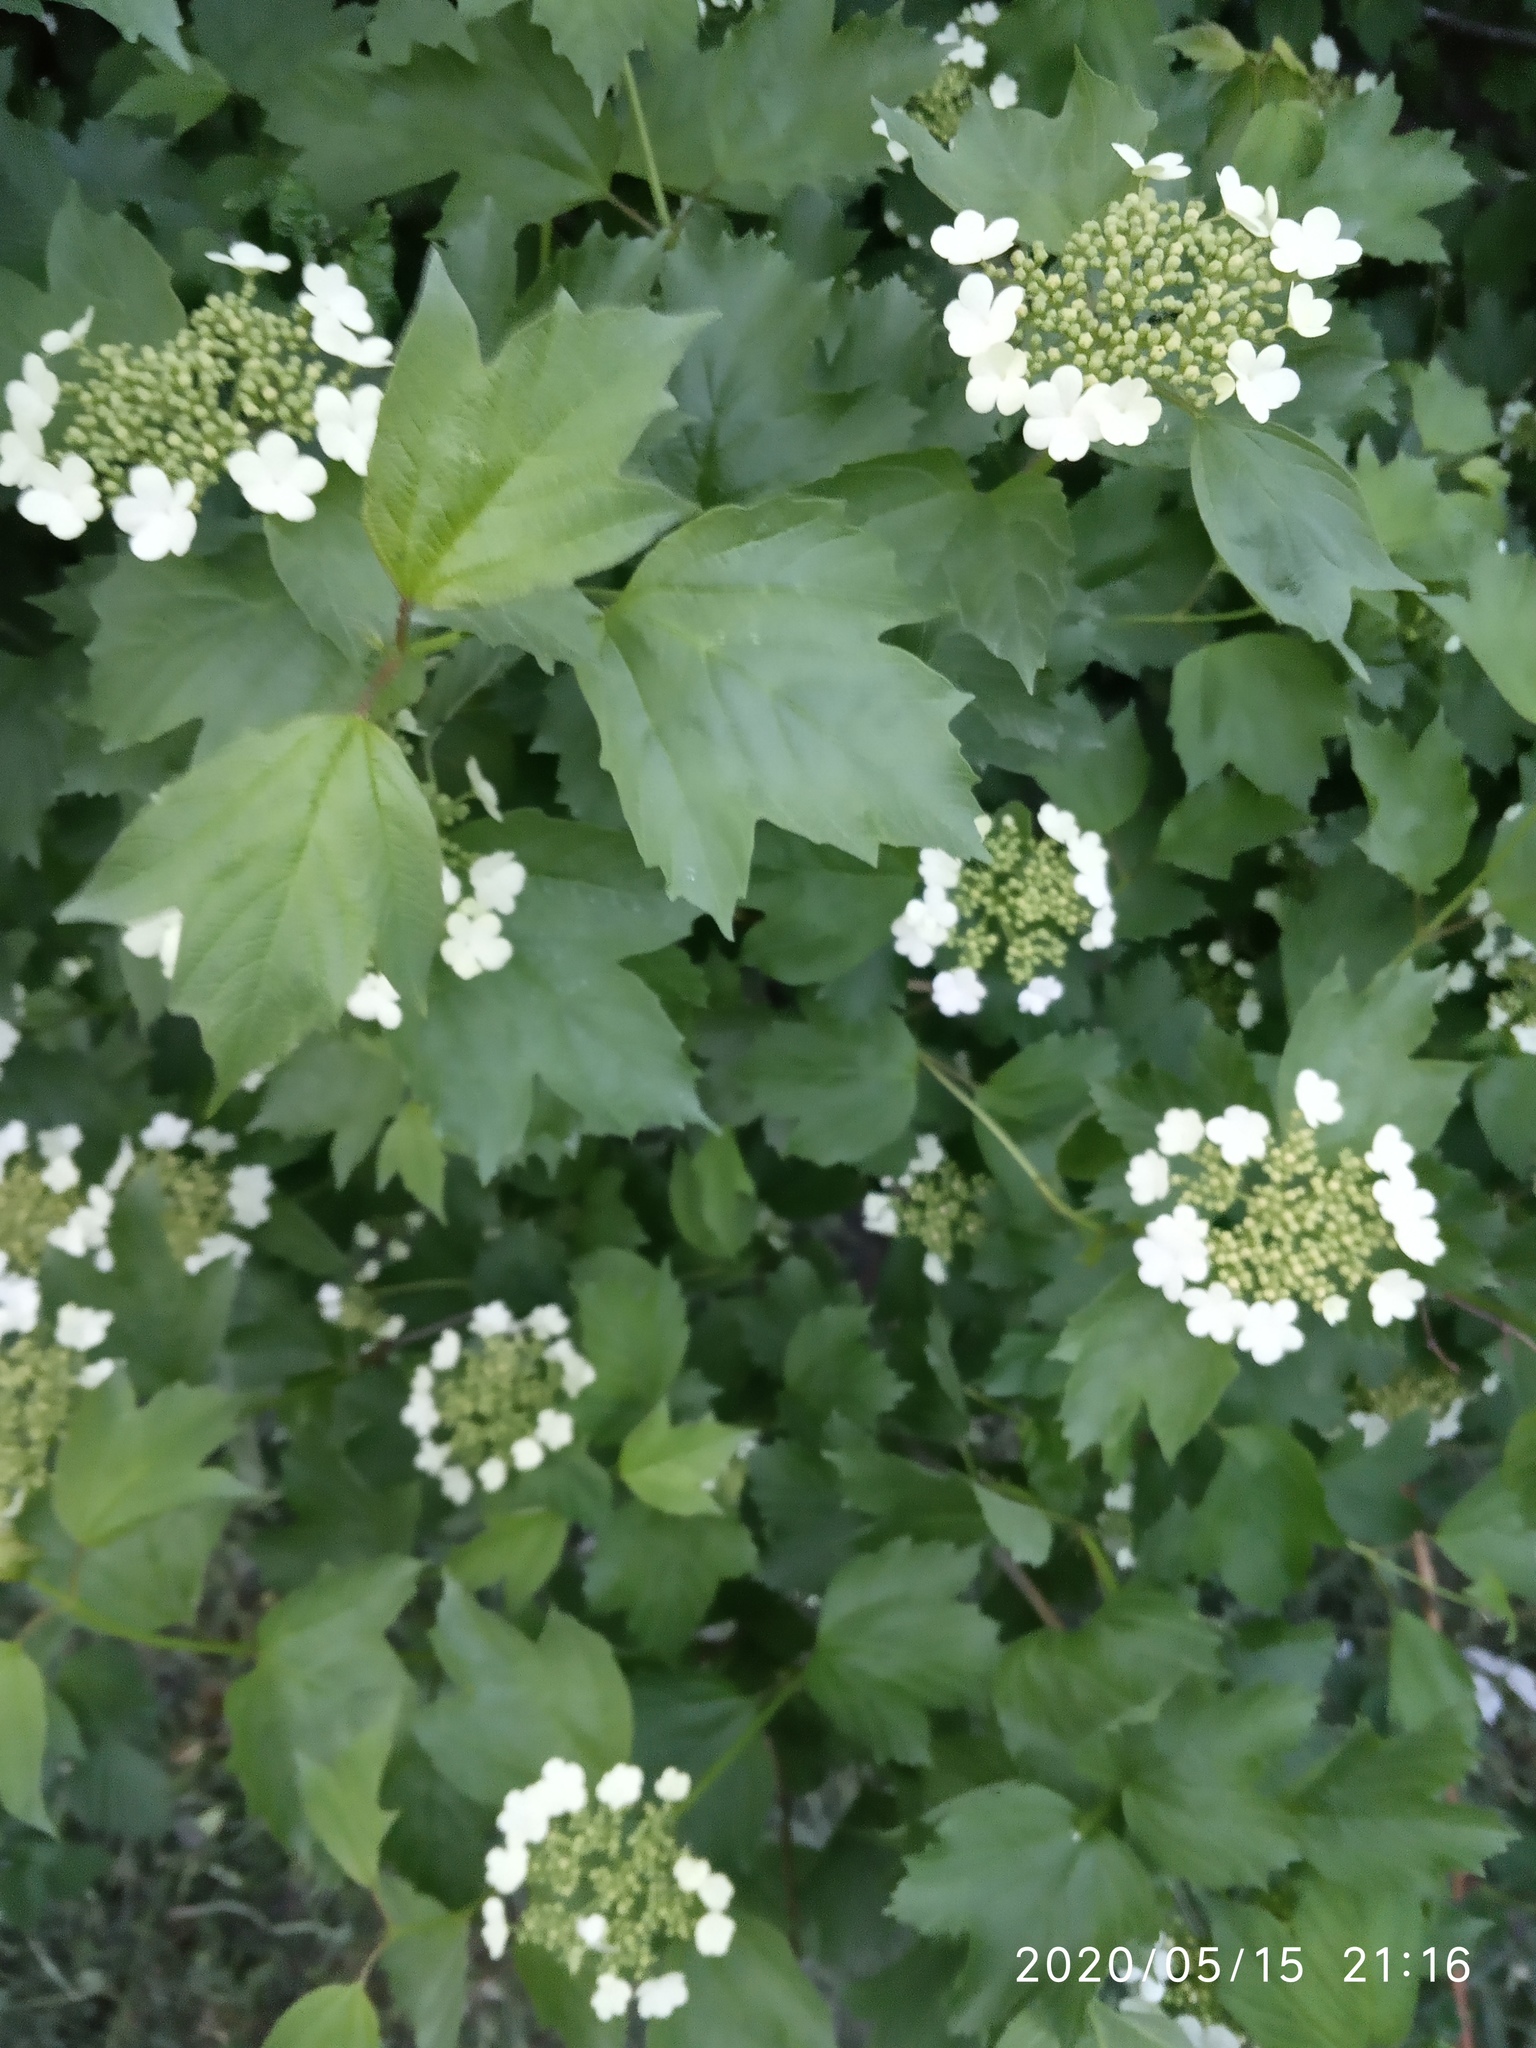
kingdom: Plantae
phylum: Tracheophyta
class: Magnoliopsida
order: Dipsacales
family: Viburnaceae
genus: Viburnum
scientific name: Viburnum opulus
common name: Guelder-rose
